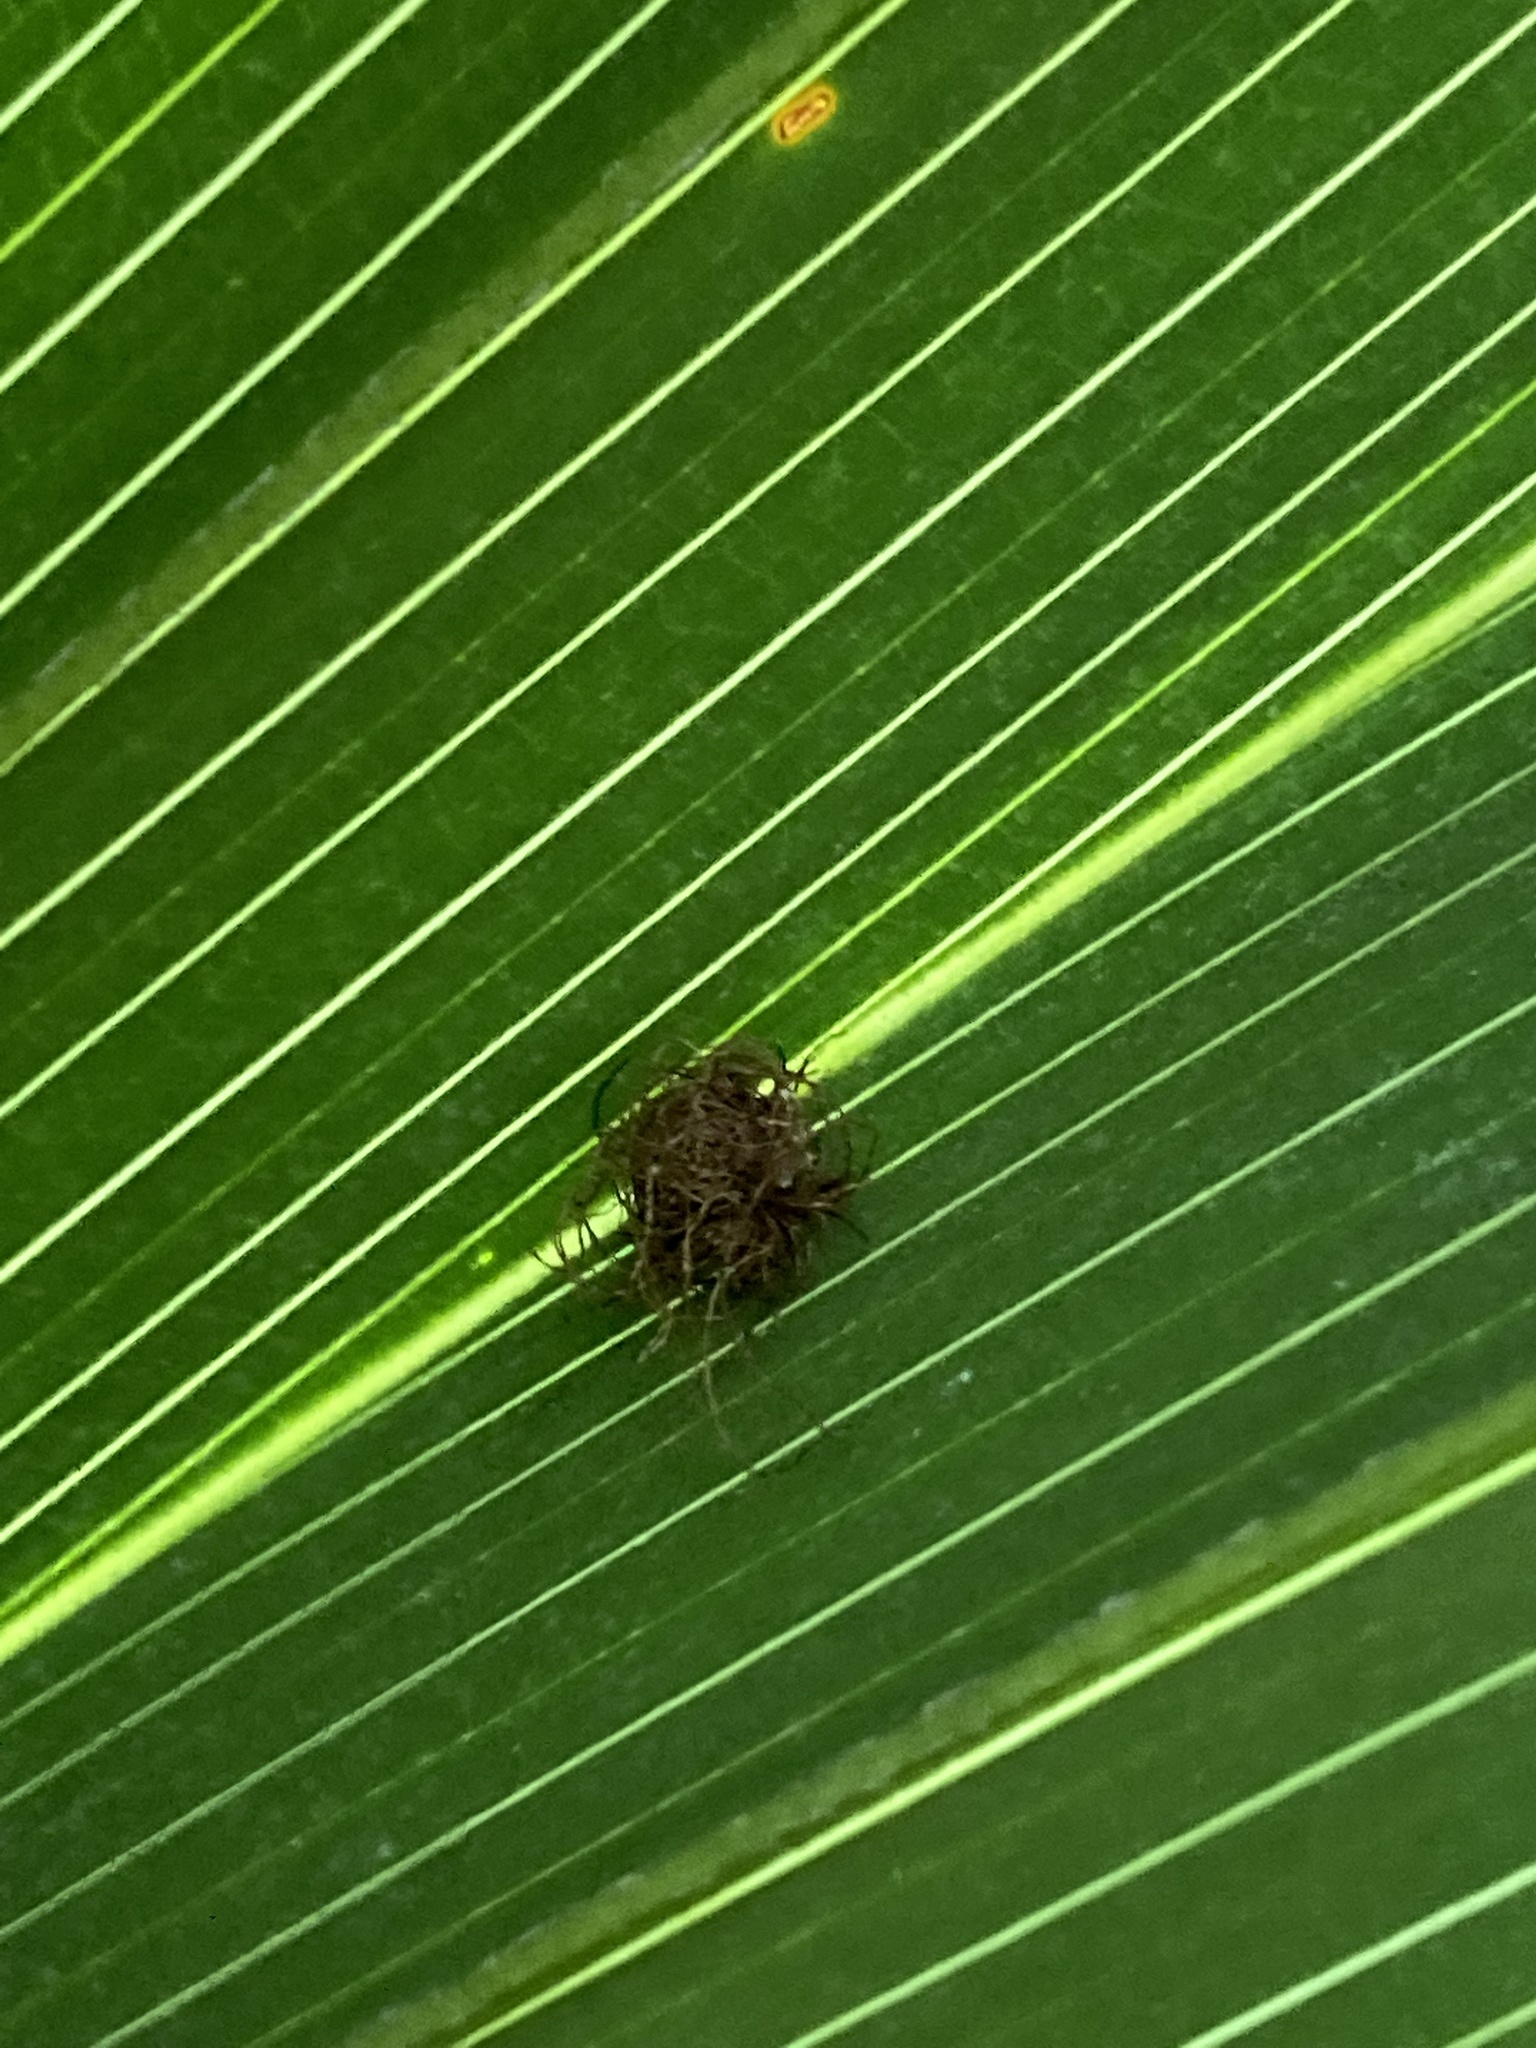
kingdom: Animalia
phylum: Arthropoda
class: Insecta
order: Coleoptera
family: Chrysomelidae
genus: Hemisphaerota
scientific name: Hemisphaerota cyanea
